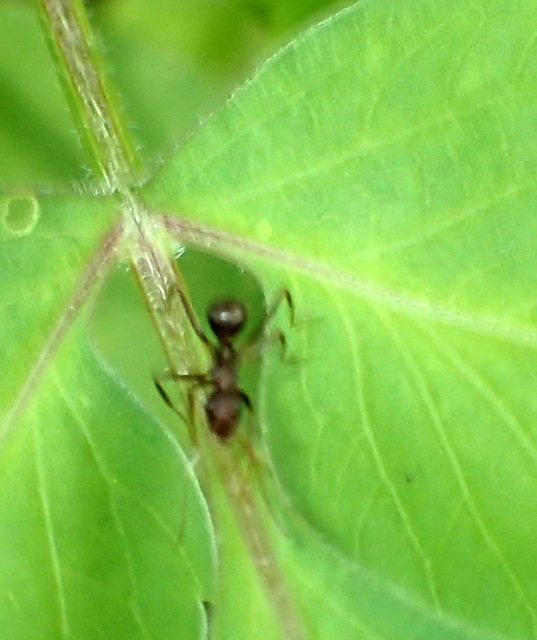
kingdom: Animalia
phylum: Arthropoda
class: Insecta
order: Hymenoptera
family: Formicidae
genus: Formica
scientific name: Formica archboldi
